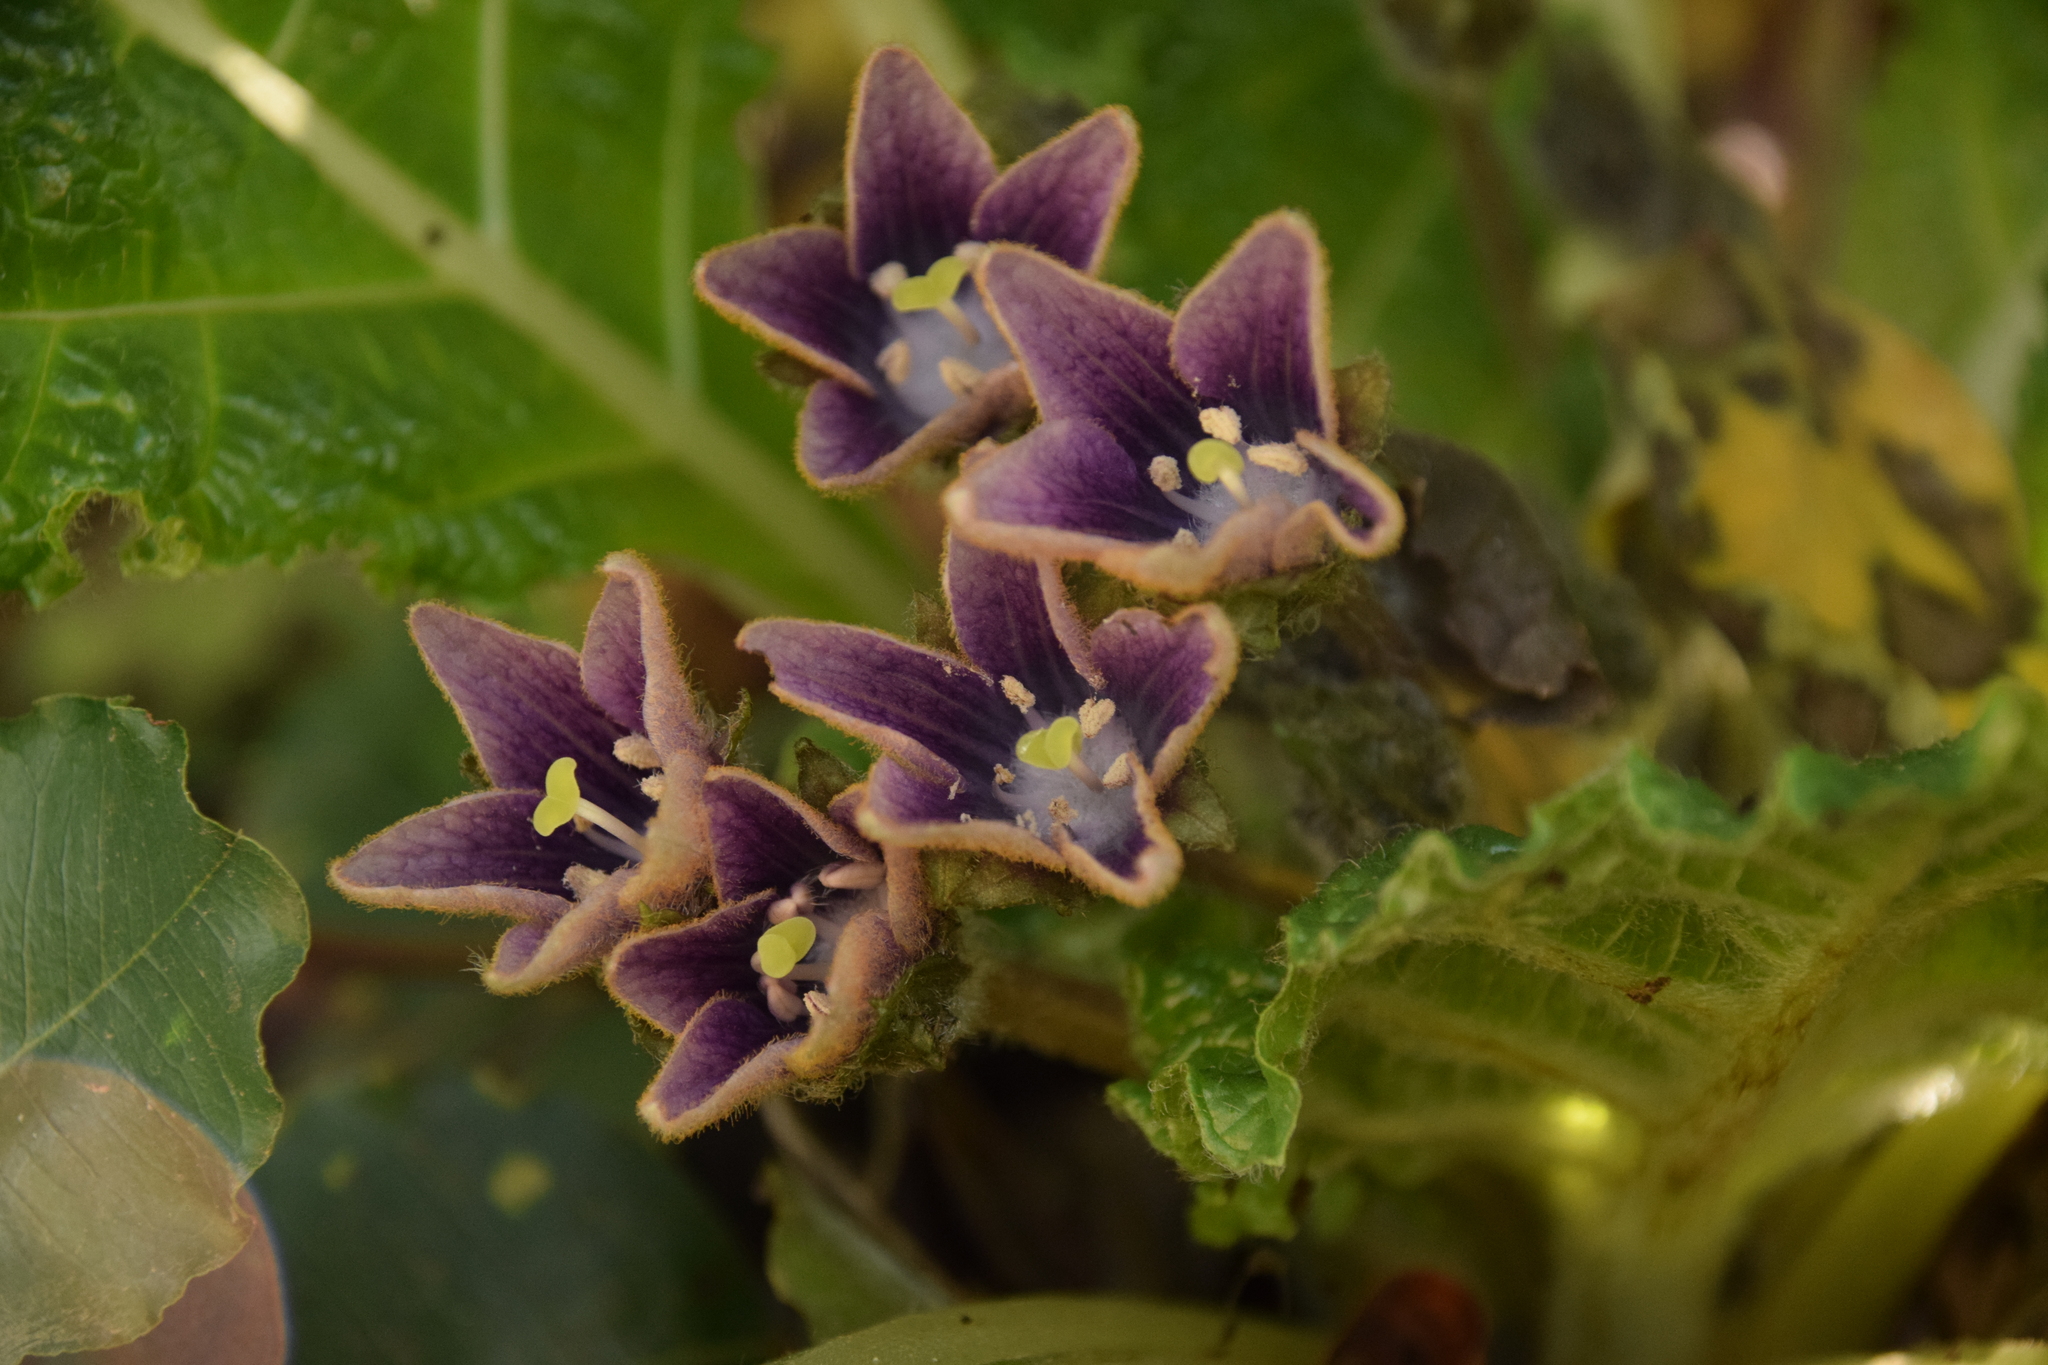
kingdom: Plantae
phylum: Tracheophyta
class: Magnoliopsida
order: Solanales
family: Solanaceae
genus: Mandragora
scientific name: Mandragora officinarum
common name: Mandrake
